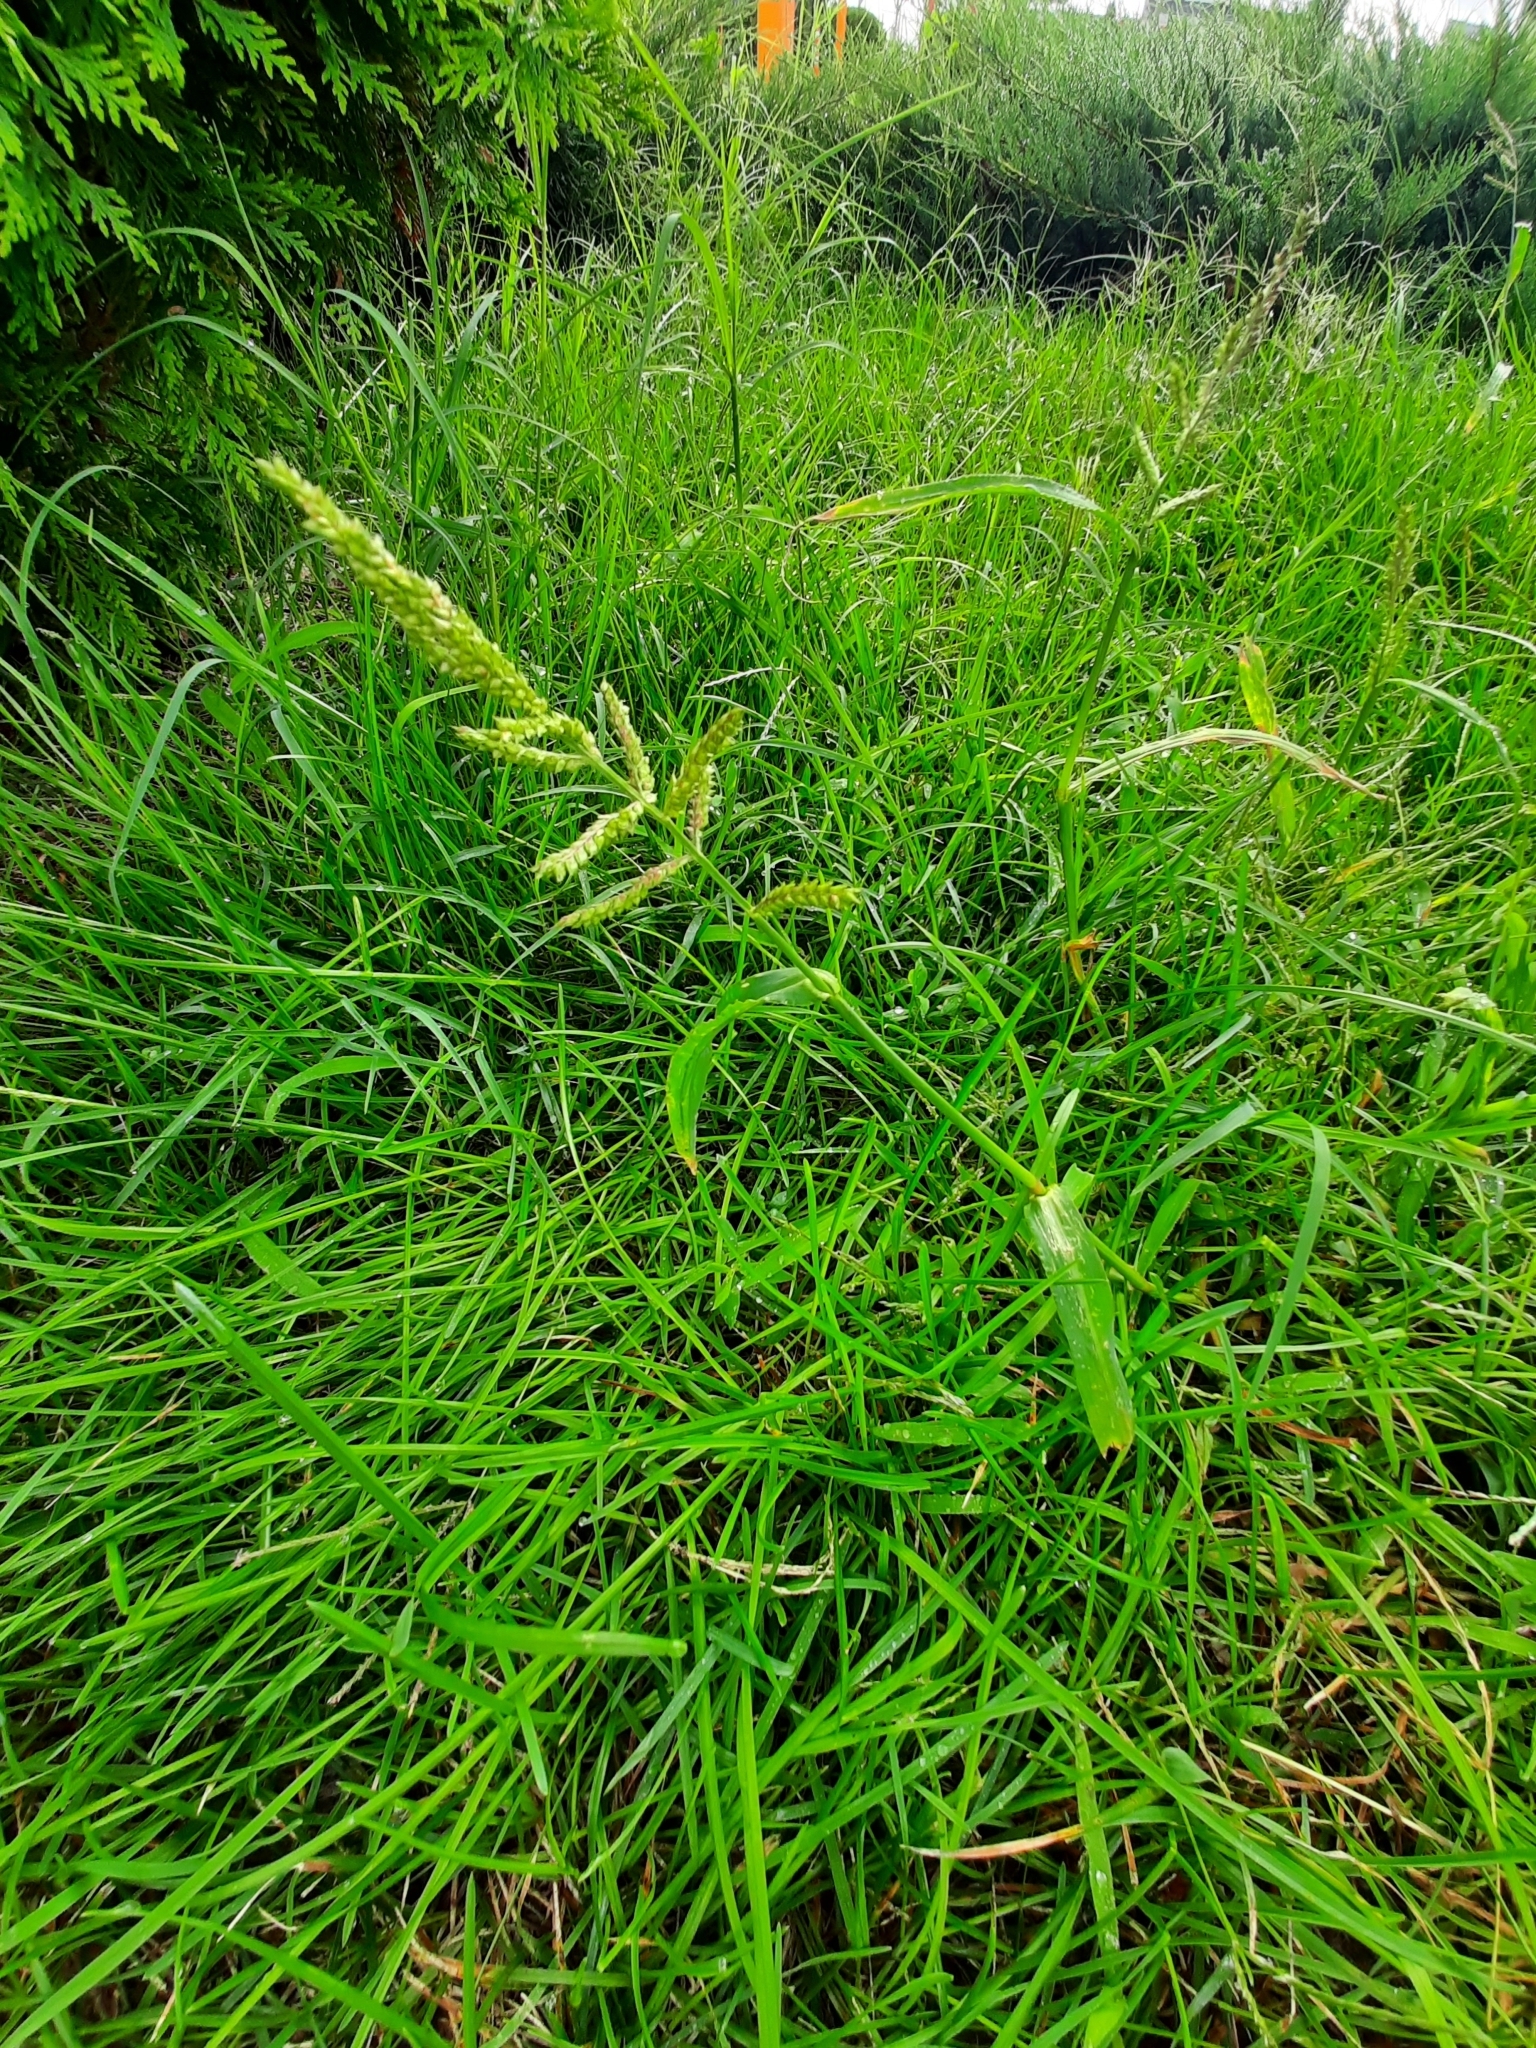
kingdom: Plantae
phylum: Tracheophyta
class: Liliopsida
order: Poales
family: Poaceae
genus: Echinochloa
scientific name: Echinochloa crus-galli
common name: Cockspur
